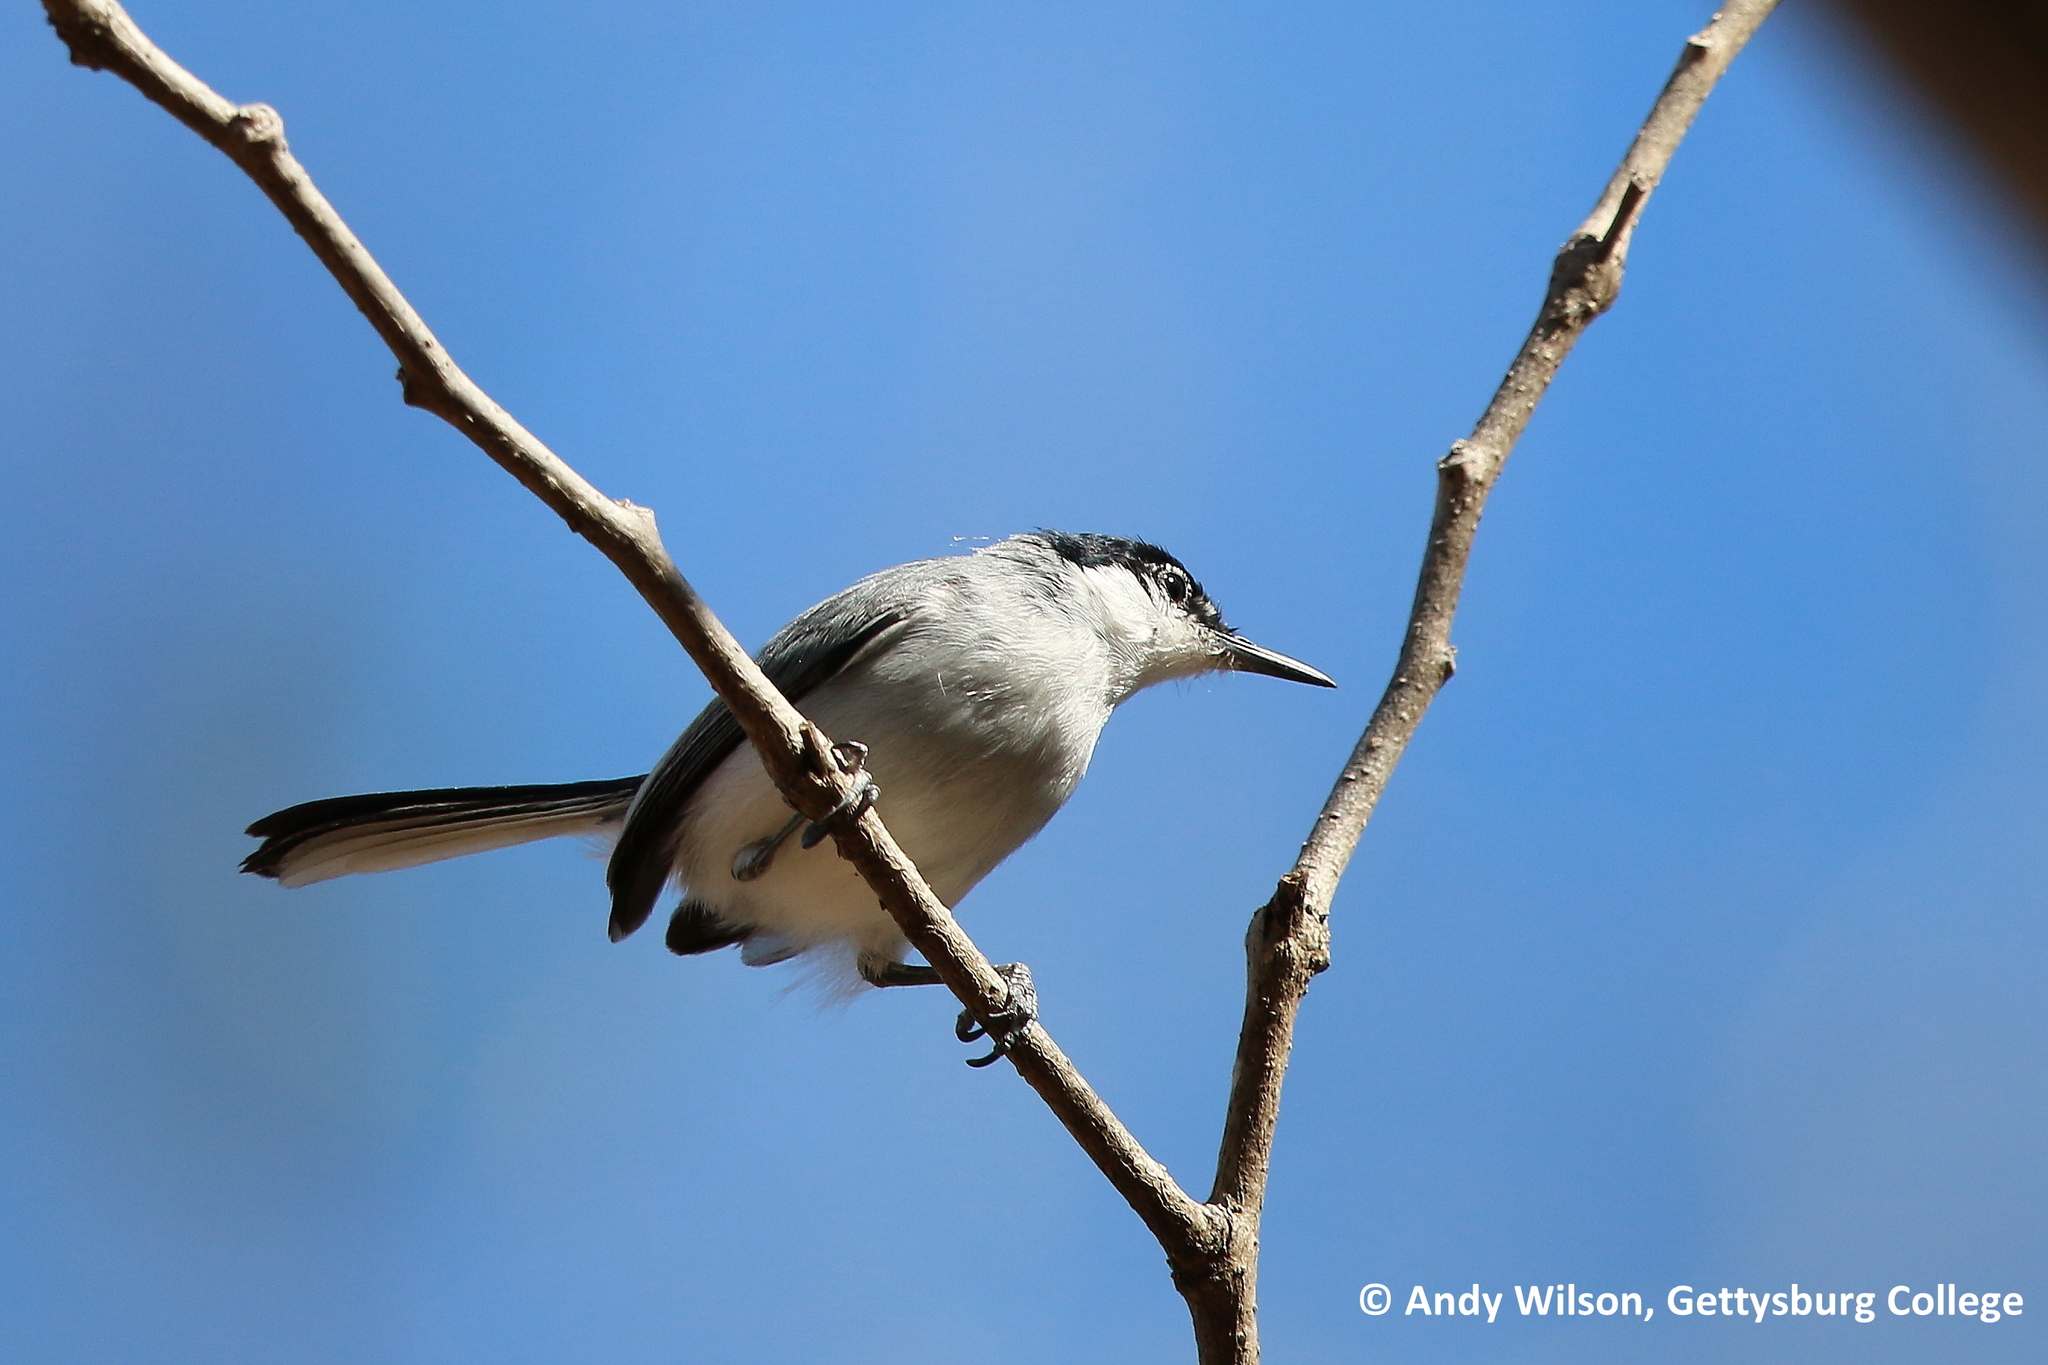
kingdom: Animalia
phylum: Chordata
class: Aves
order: Passeriformes
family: Polioptilidae
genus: Polioptila
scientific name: Polioptila albiloris
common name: White-lored gnatcatcher
